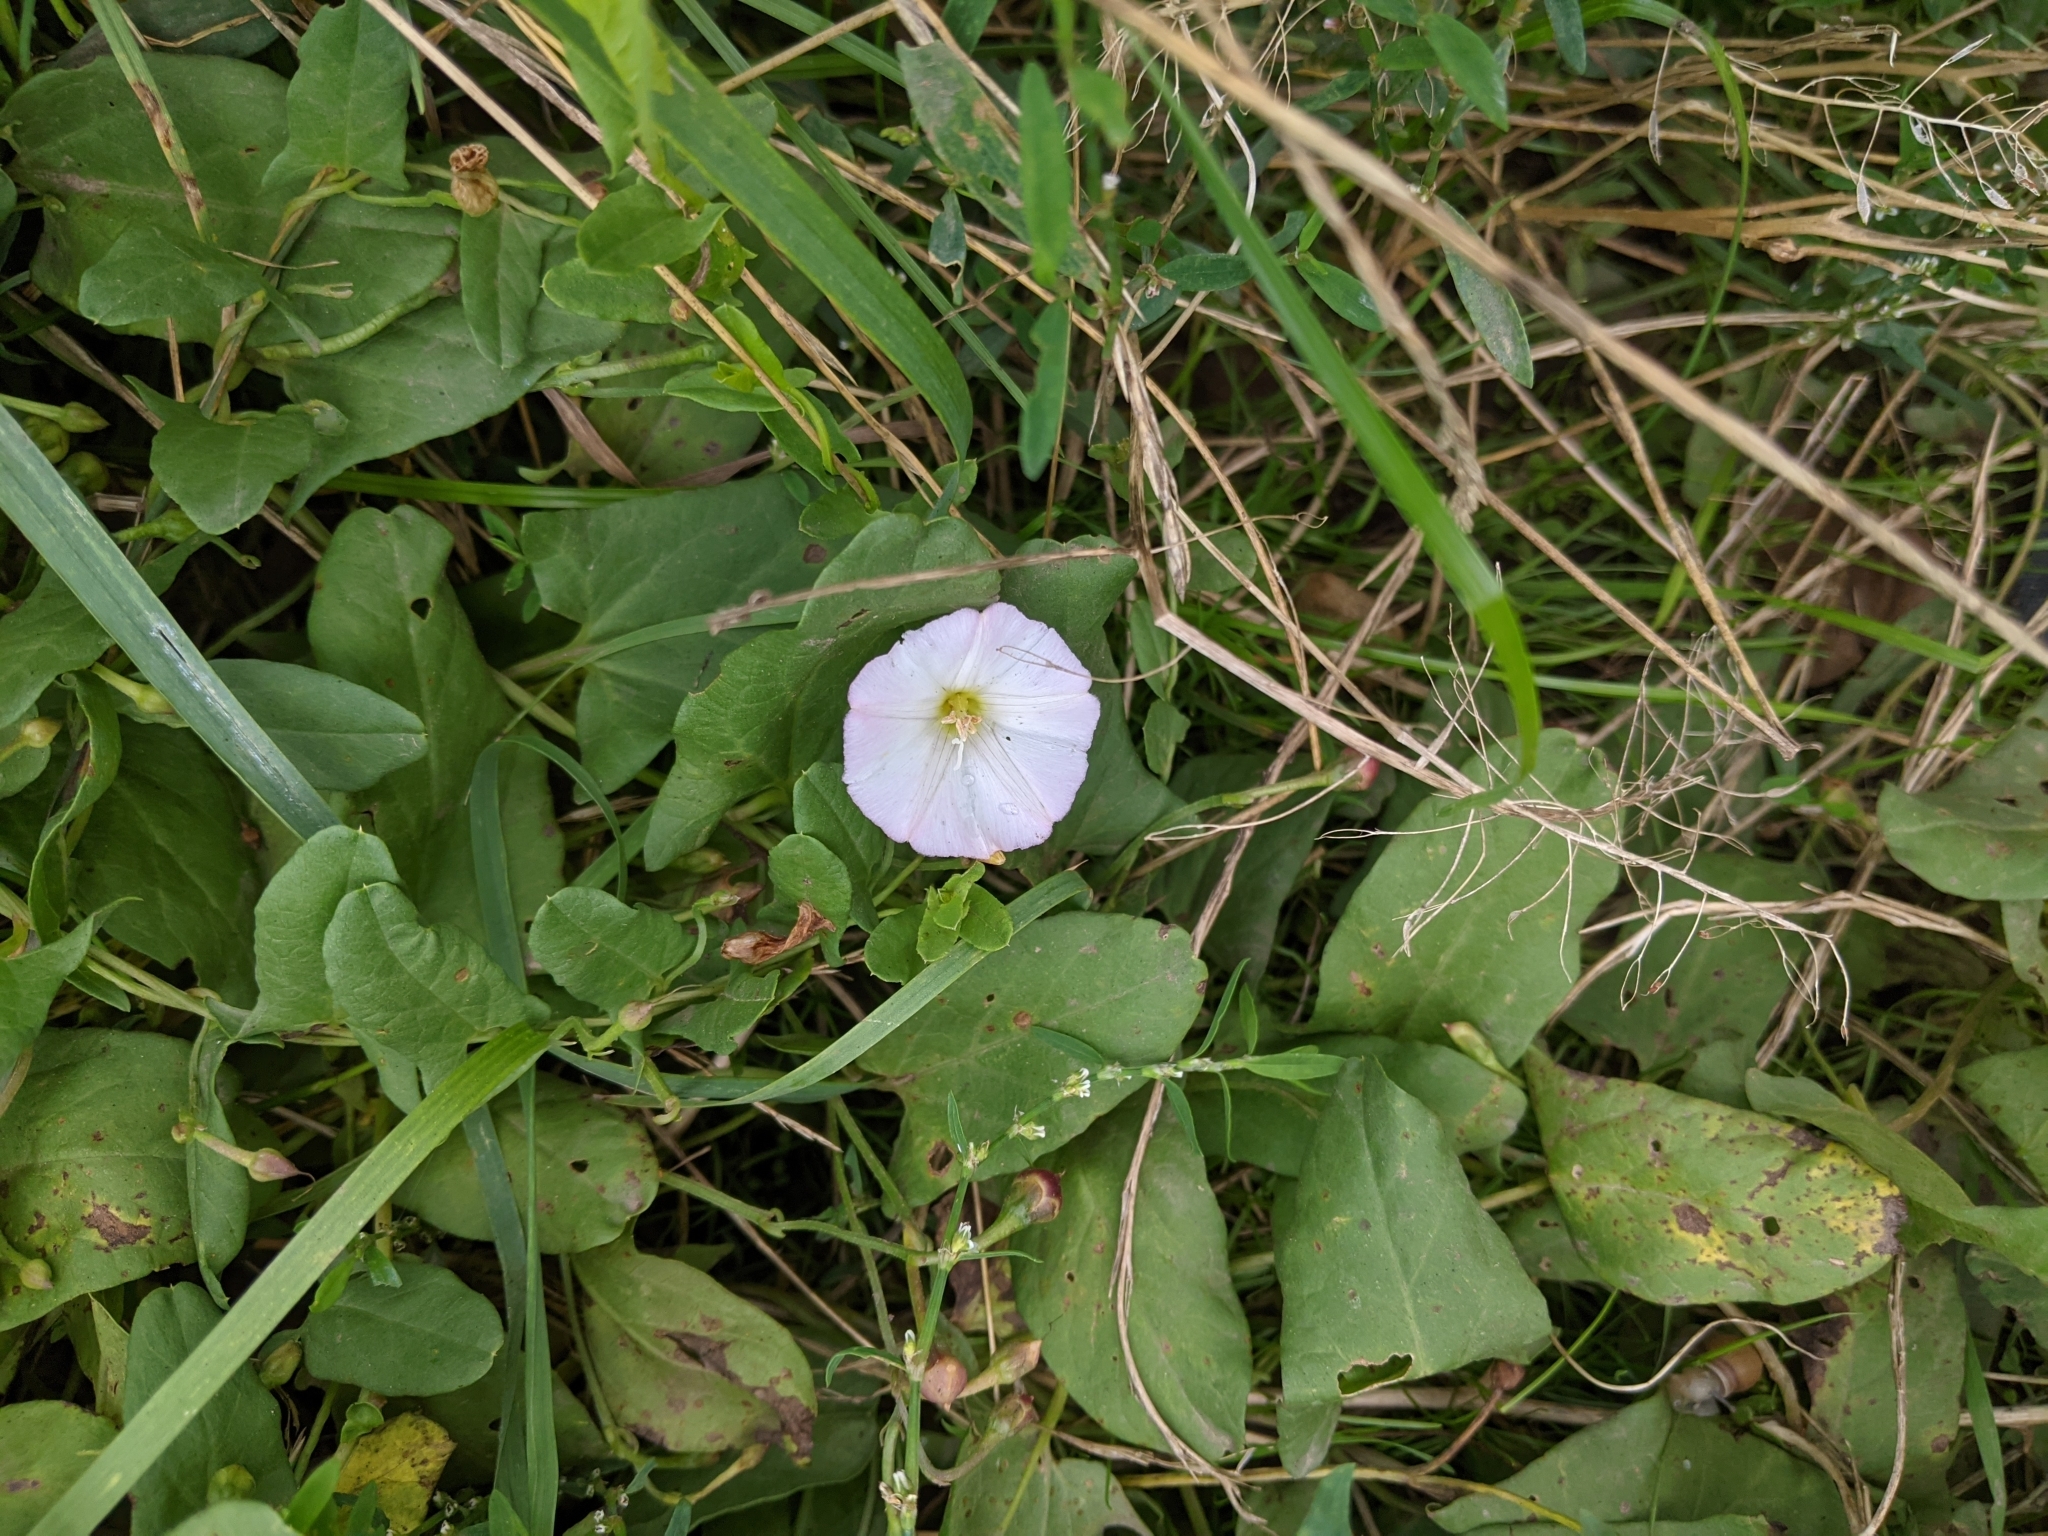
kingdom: Plantae
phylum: Tracheophyta
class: Magnoliopsida
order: Solanales
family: Convolvulaceae
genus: Convolvulus
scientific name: Convolvulus arvensis
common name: Field bindweed
